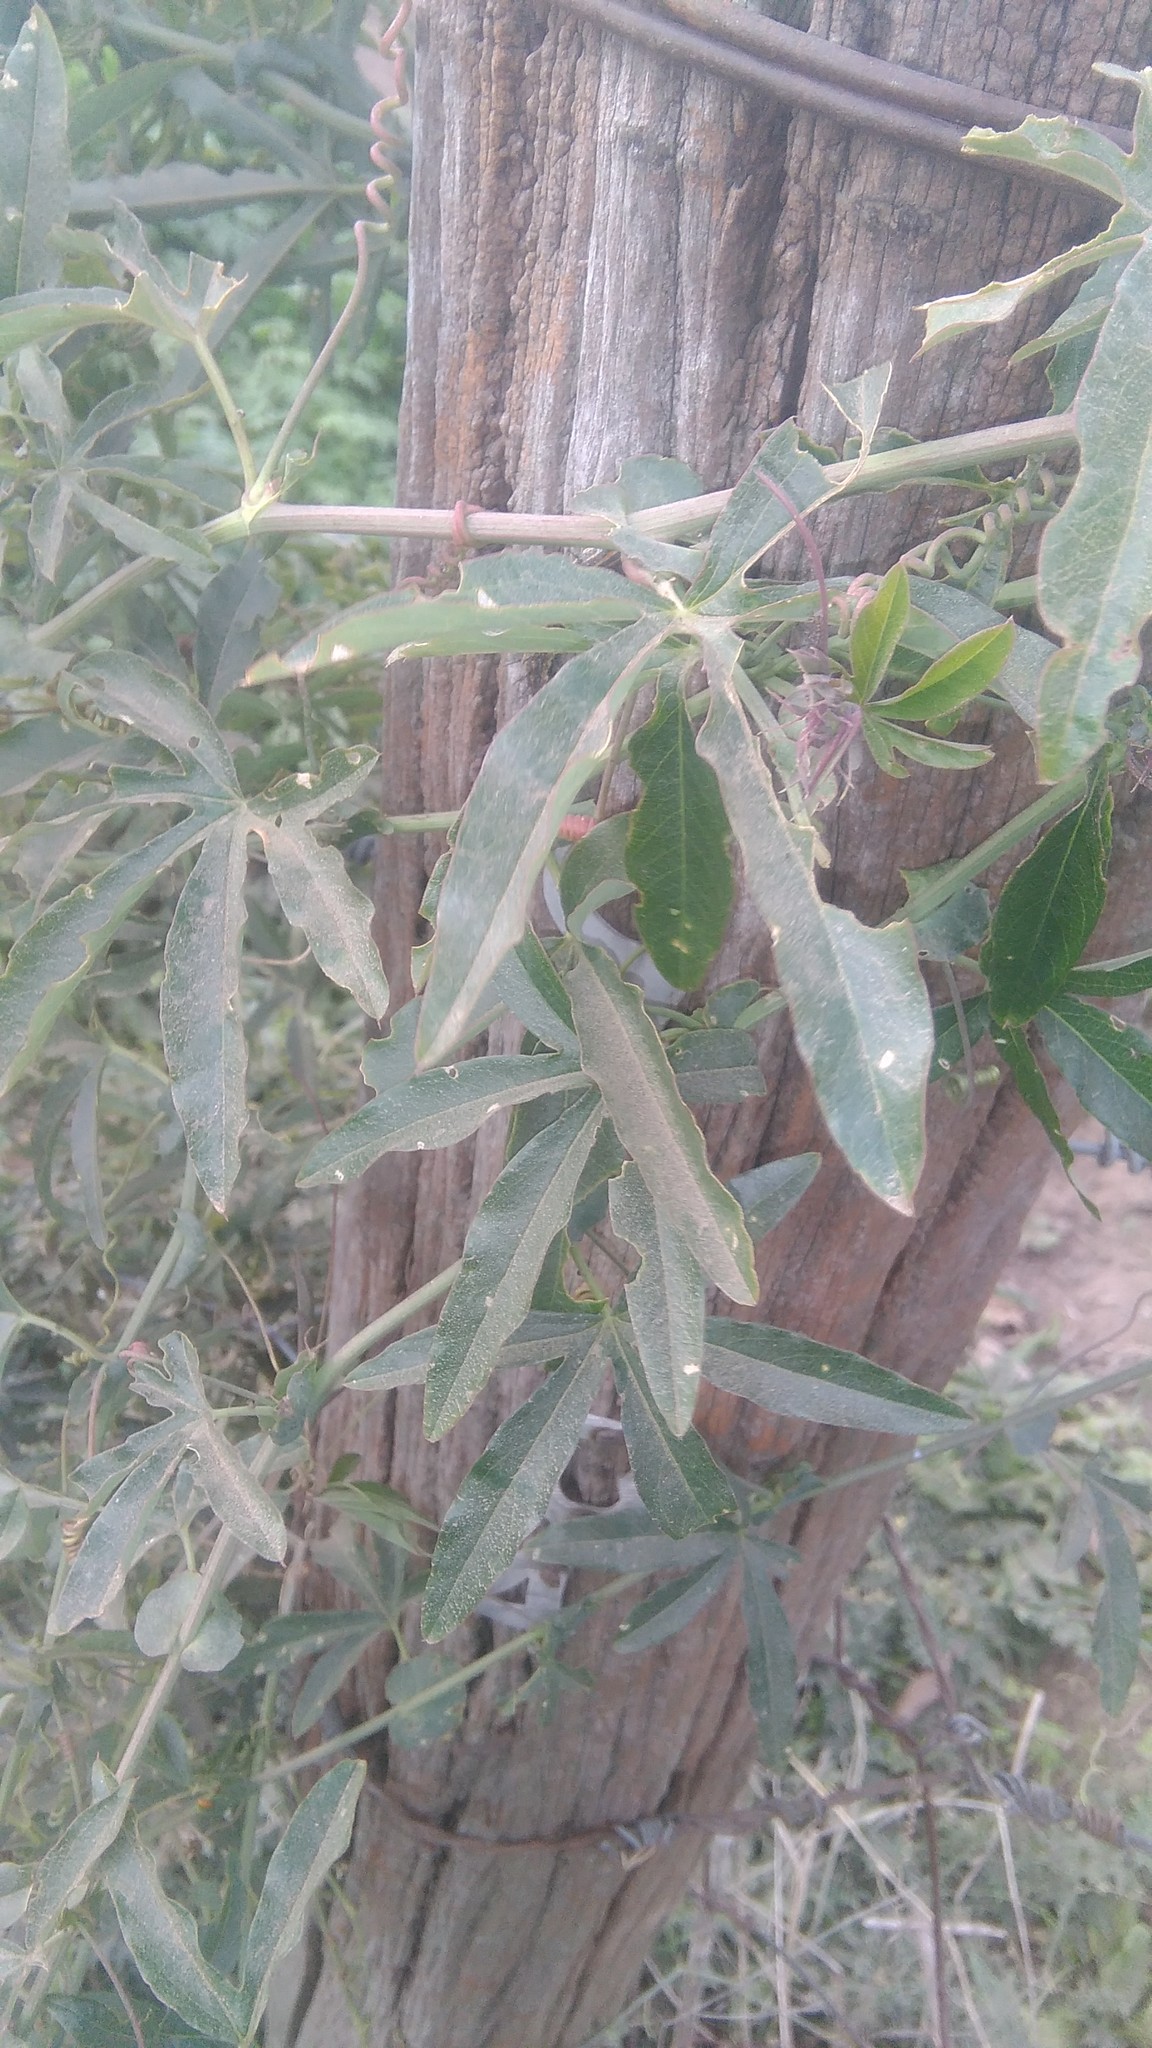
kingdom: Plantae
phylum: Tracheophyta
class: Magnoliopsida
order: Malpighiales
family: Passifloraceae
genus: Passiflora
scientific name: Passiflora caerulea
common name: Blue passionflower
